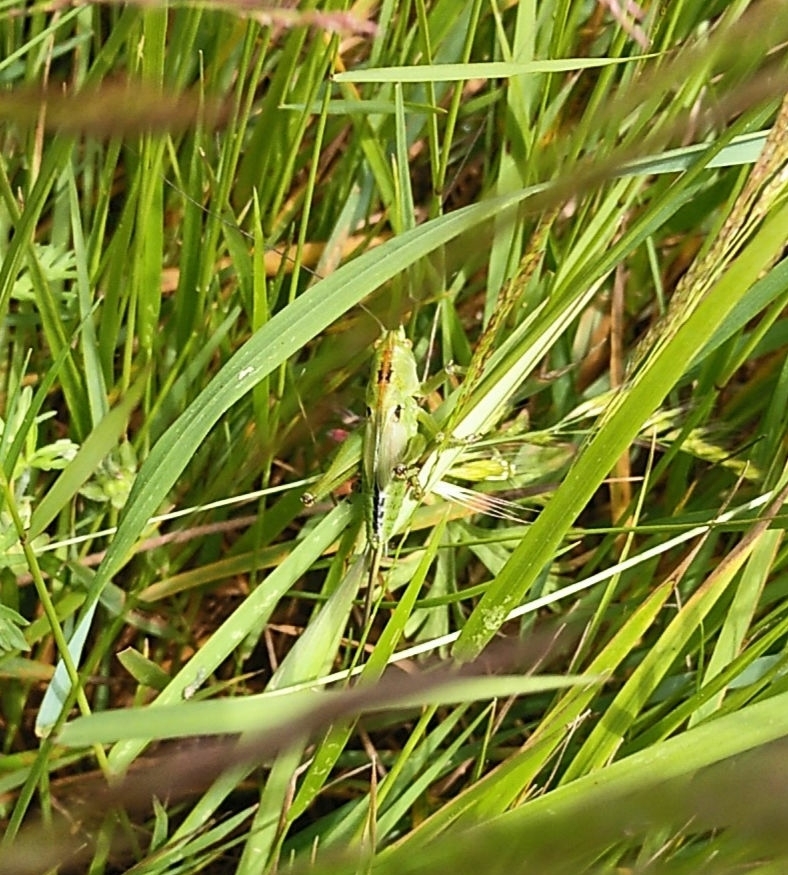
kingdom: Animalia
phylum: Arthropoda
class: Insecta
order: Orthoptera
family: Tettigoniidae
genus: Tettigonia
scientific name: Tettigonia viridissima
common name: Great green bush-cricket
